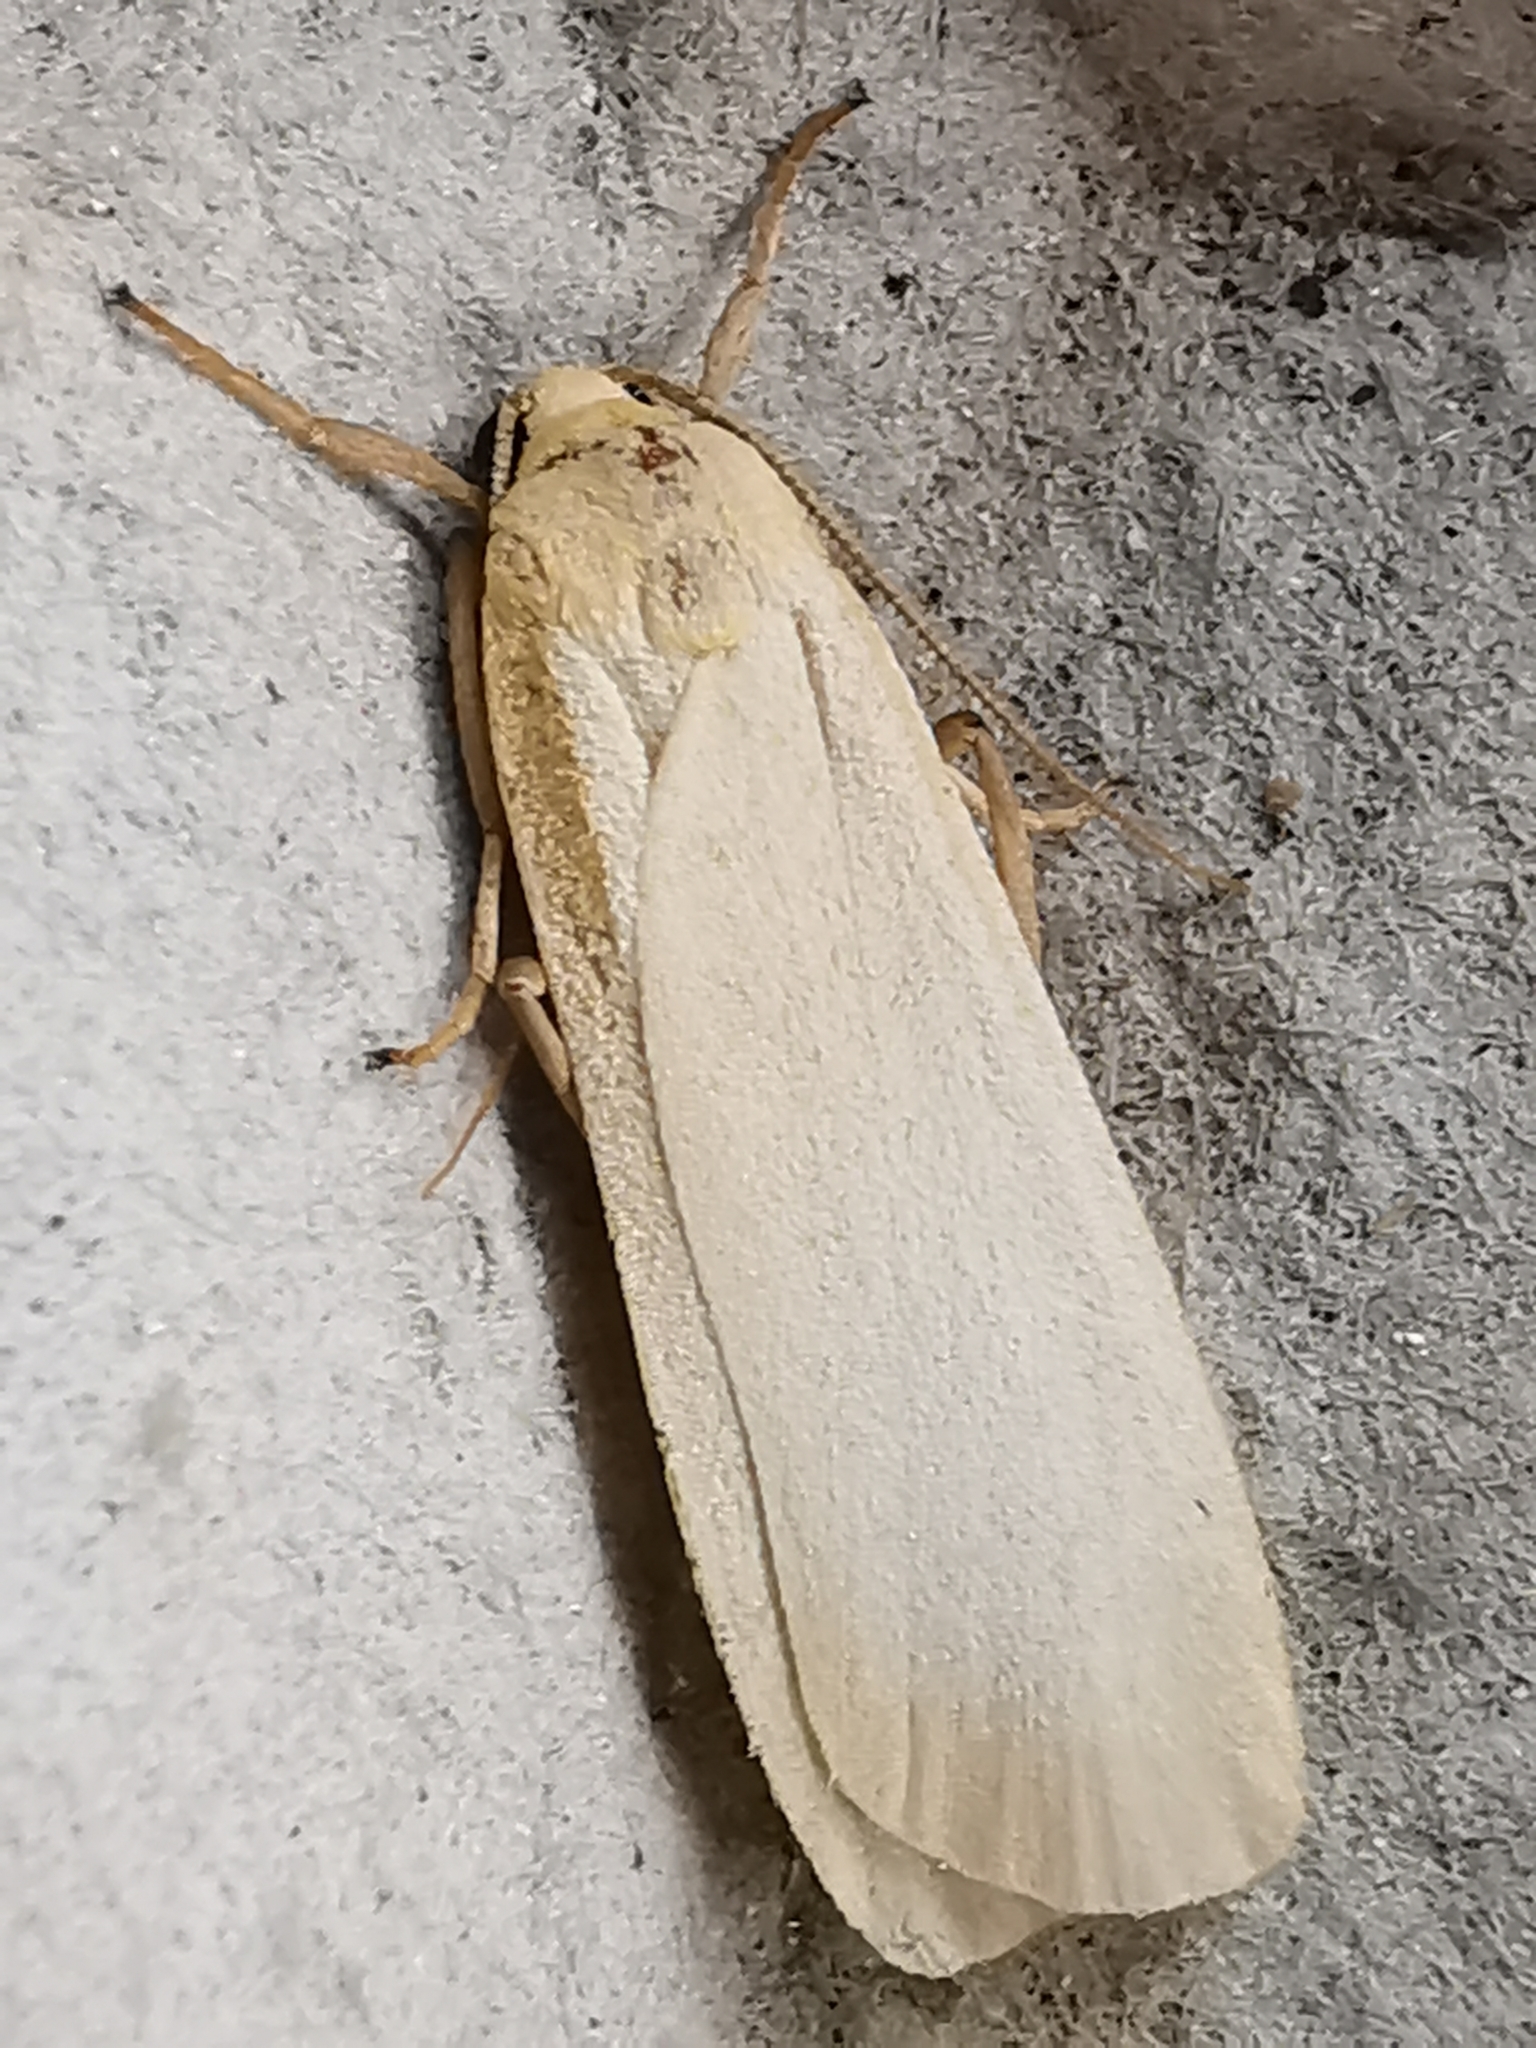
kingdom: Animalia
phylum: Arthropoda
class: Insecta
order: Lepidoptera
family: Erebidae
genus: Katha
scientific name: Katha depressa
